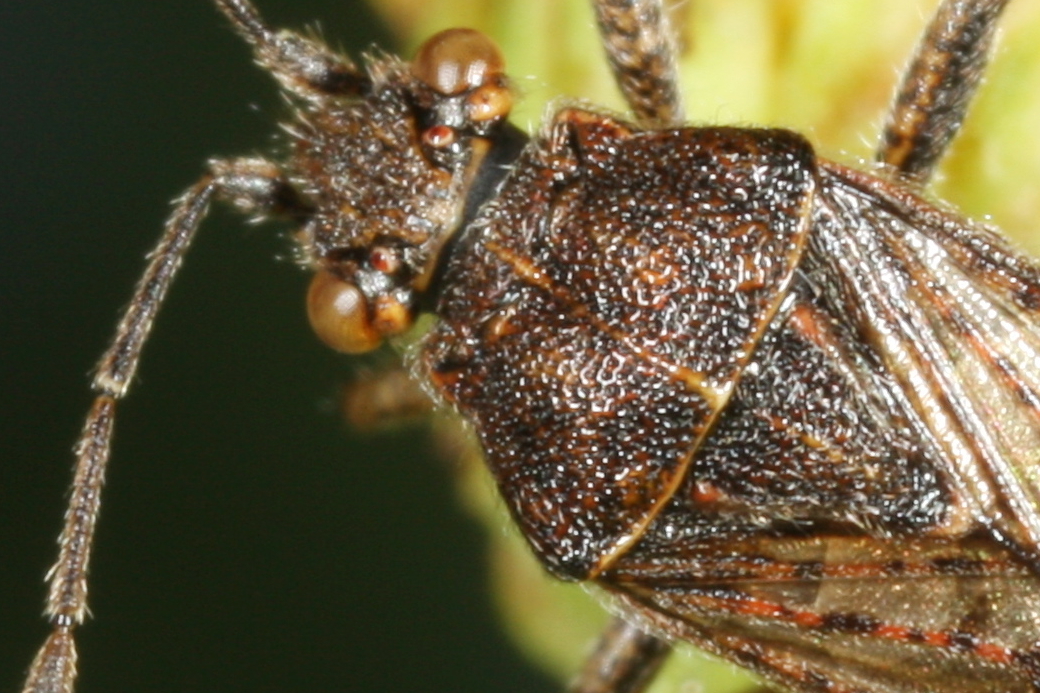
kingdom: Animalia
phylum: Arthropoda
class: Insecta
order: Hemiptera
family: Rhopalidae
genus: Stictopleurus
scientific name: Stictopleurus punctatonervosus
